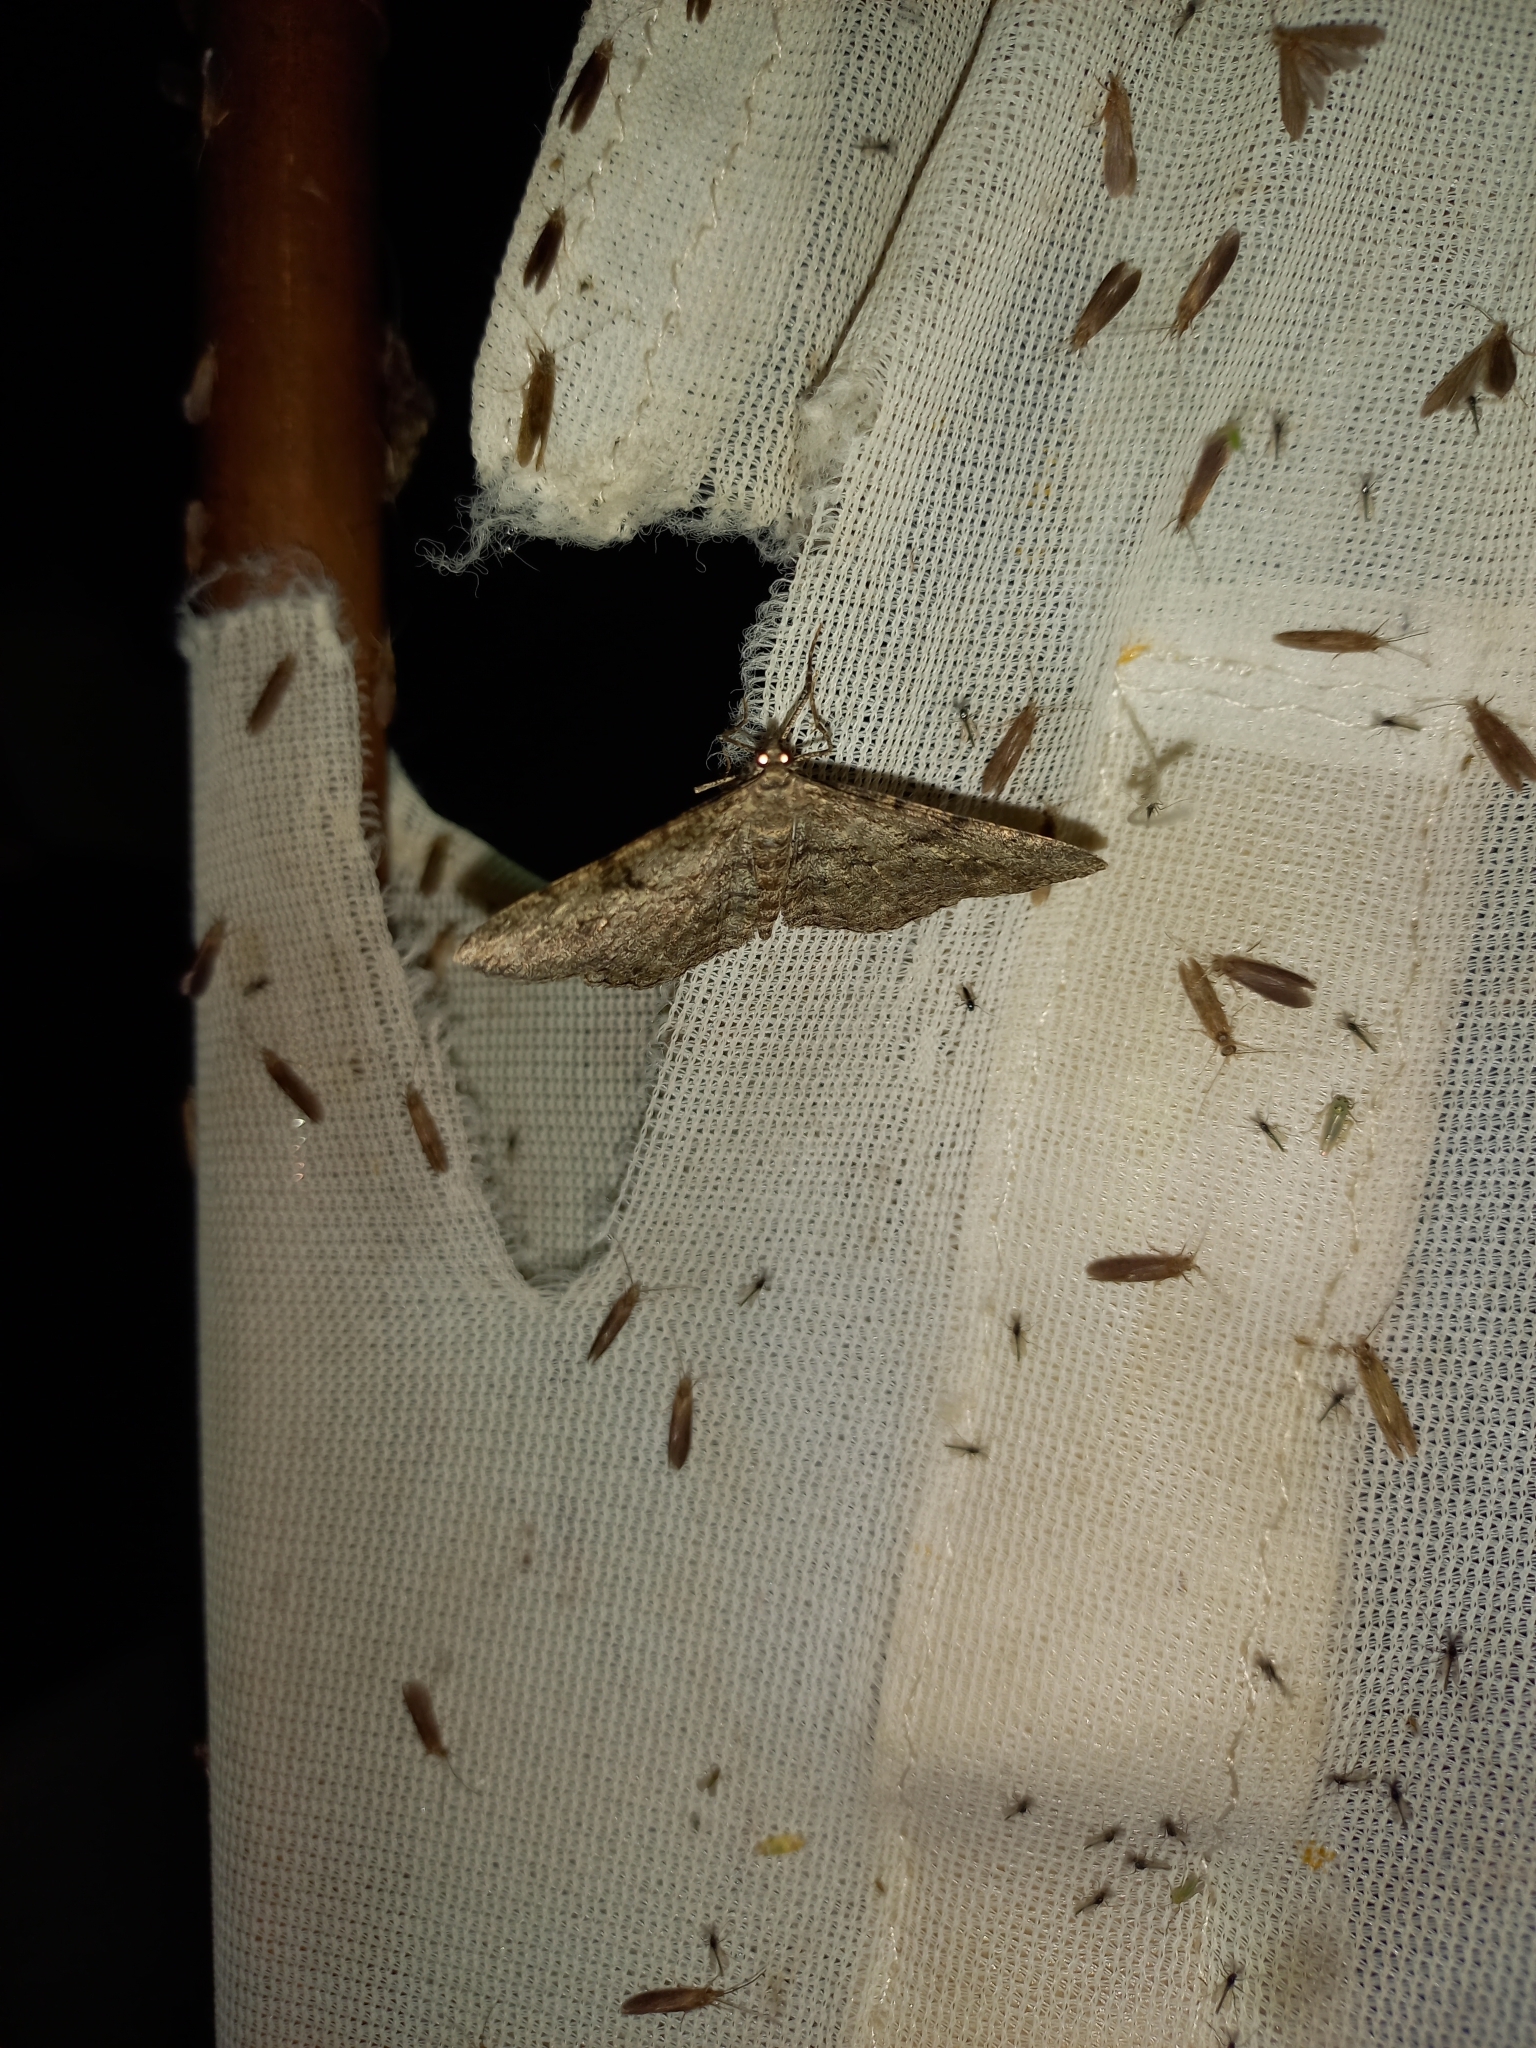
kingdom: Animalia
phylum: Arthropoda
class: Insecta
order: Lepidoptera
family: Geometridae
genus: Peribatodes
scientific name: Peribatodes rhomboidaria
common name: Willow beauty
